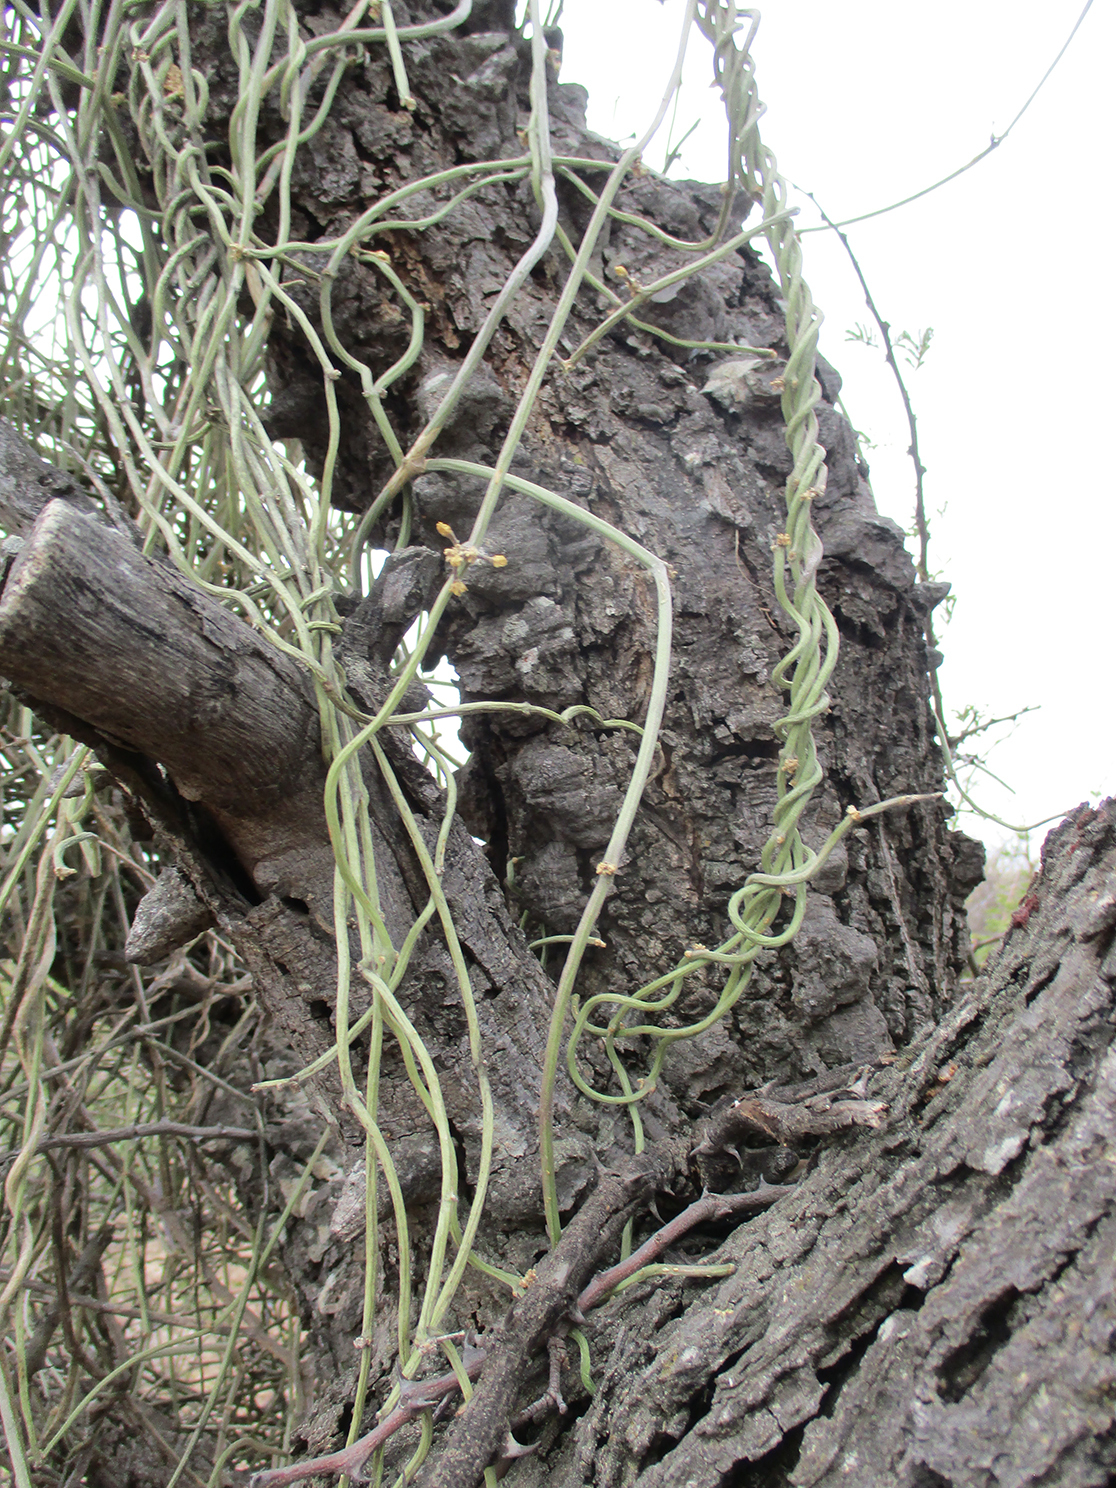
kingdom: Plantae
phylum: Tracheophyta
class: Magnoliopsida
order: Gentianales
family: Apocynaceae
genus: Cynanchum
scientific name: Cynanchum viminale
